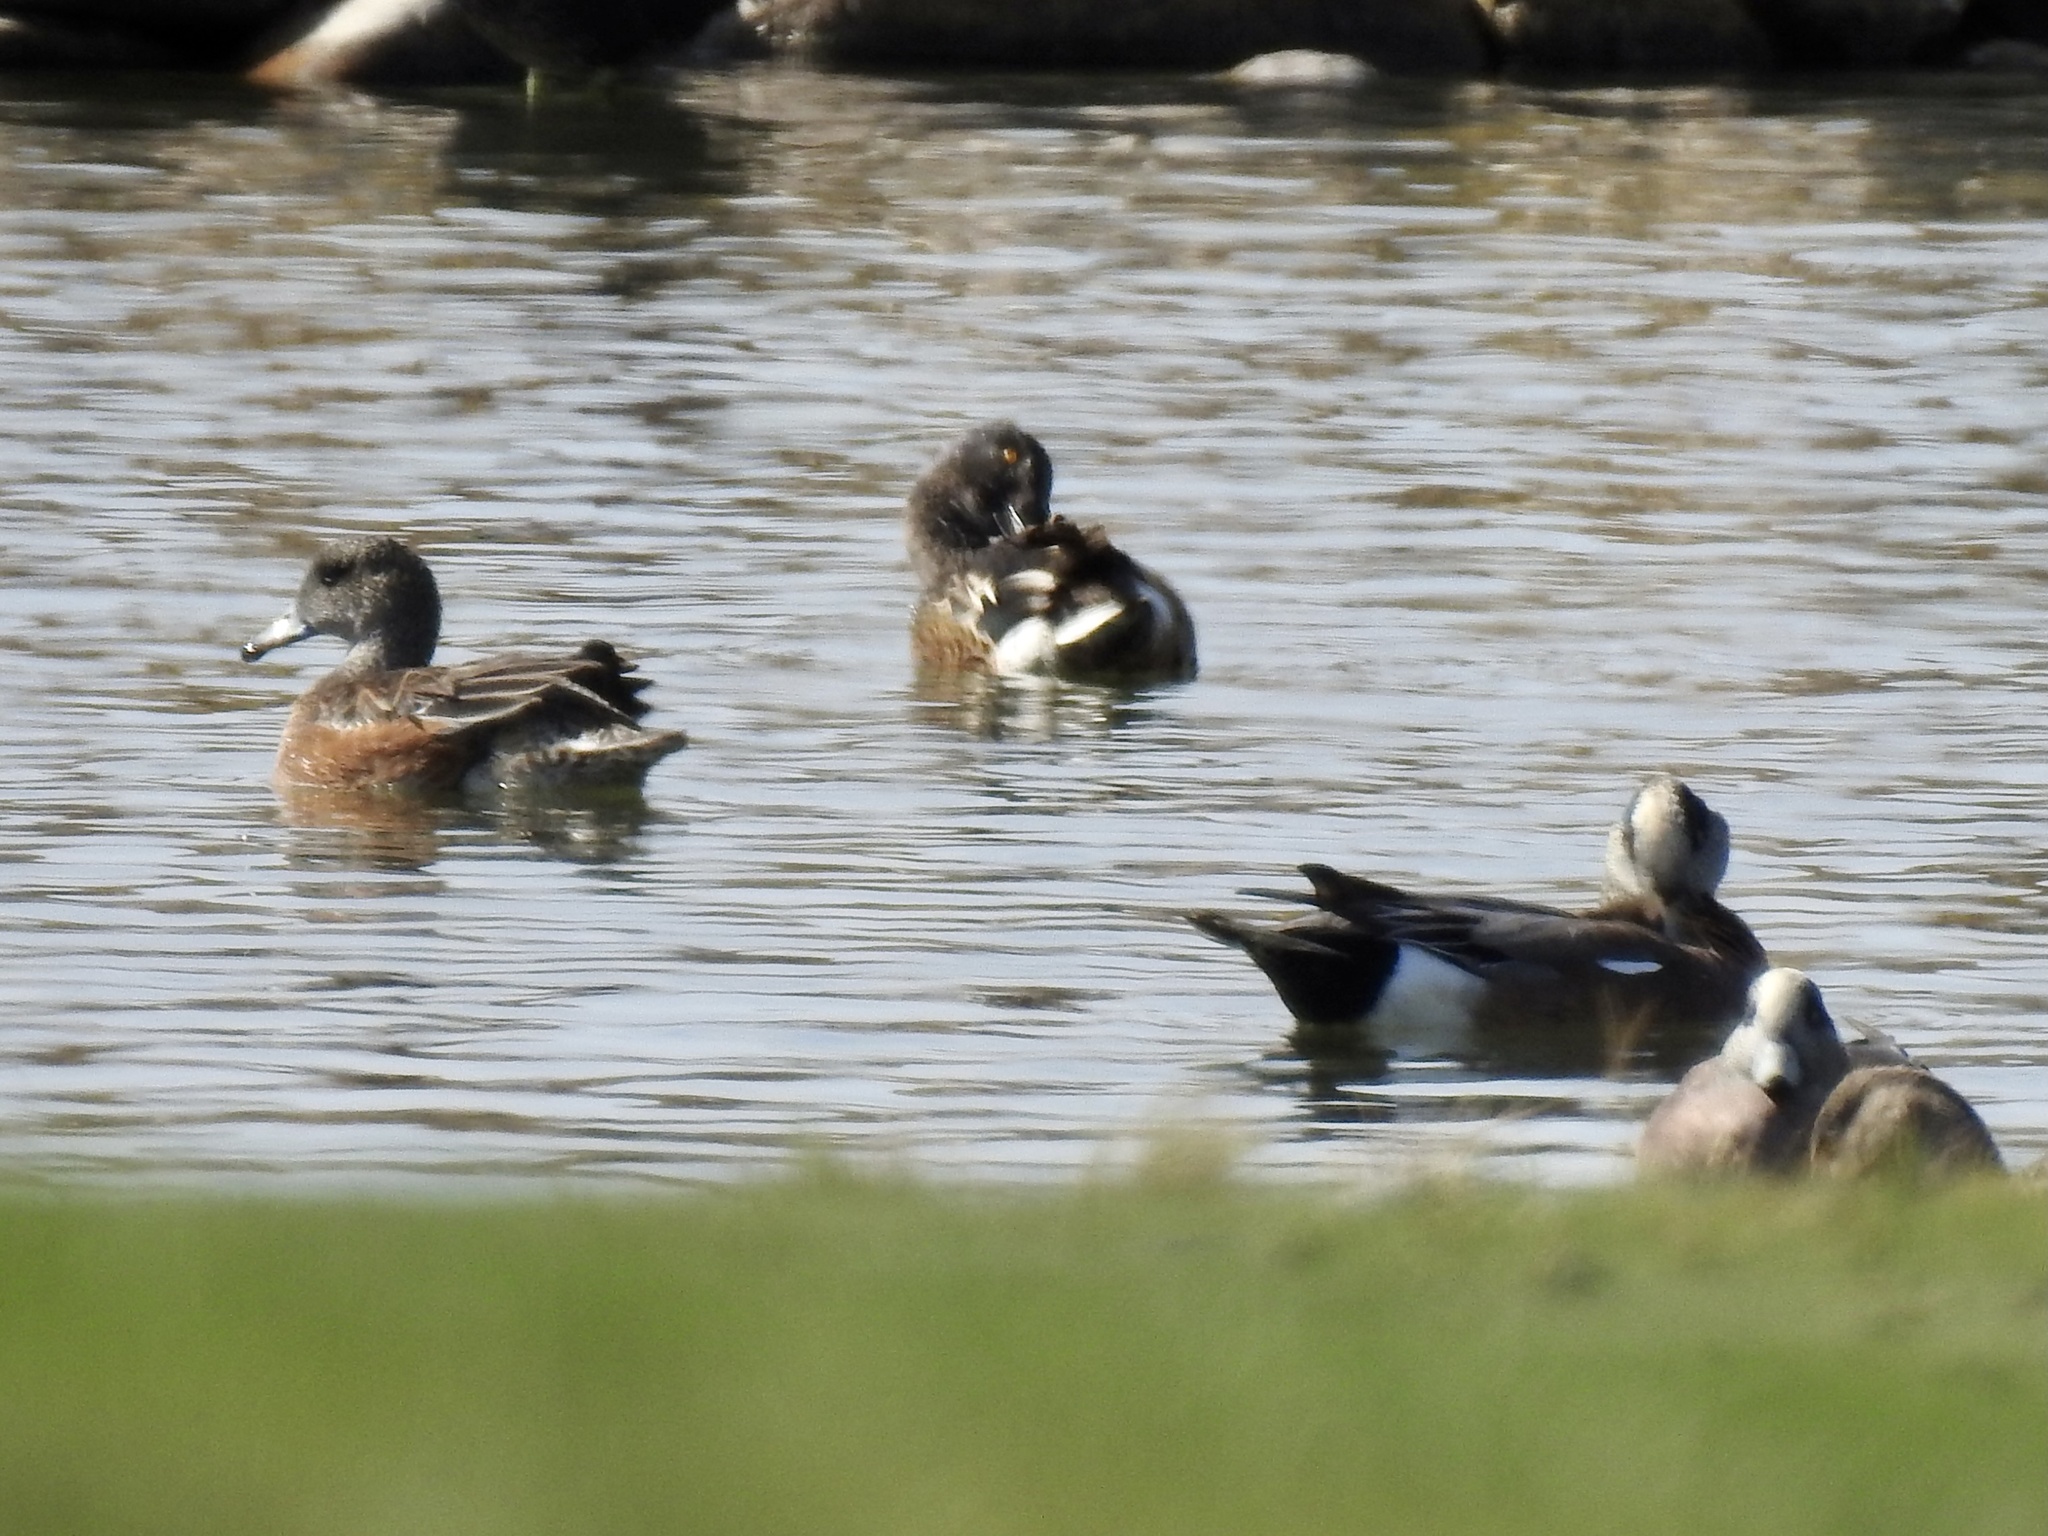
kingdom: Animalia
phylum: Chordata
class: Aves
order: Anseriformes
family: Anatidae
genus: Mareca
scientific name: Mareca americana
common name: American wigeon
